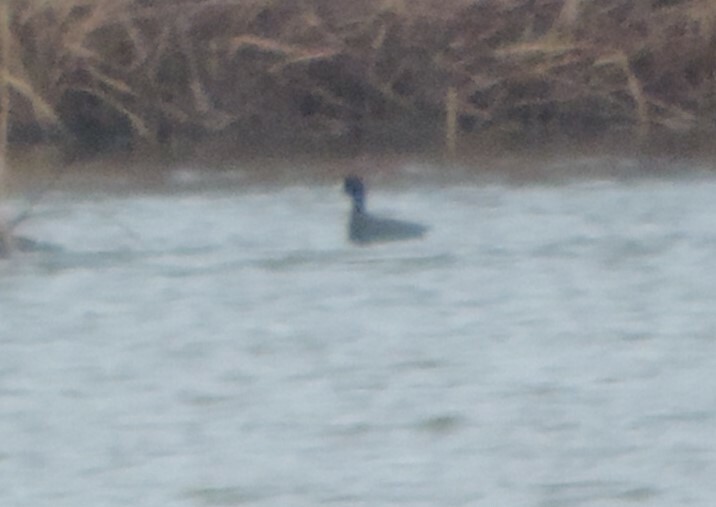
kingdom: Animalia
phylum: Chordata
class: Aves
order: Gruiformes
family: Rallidae
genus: Fulica
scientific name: Fulica americana
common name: American coot
